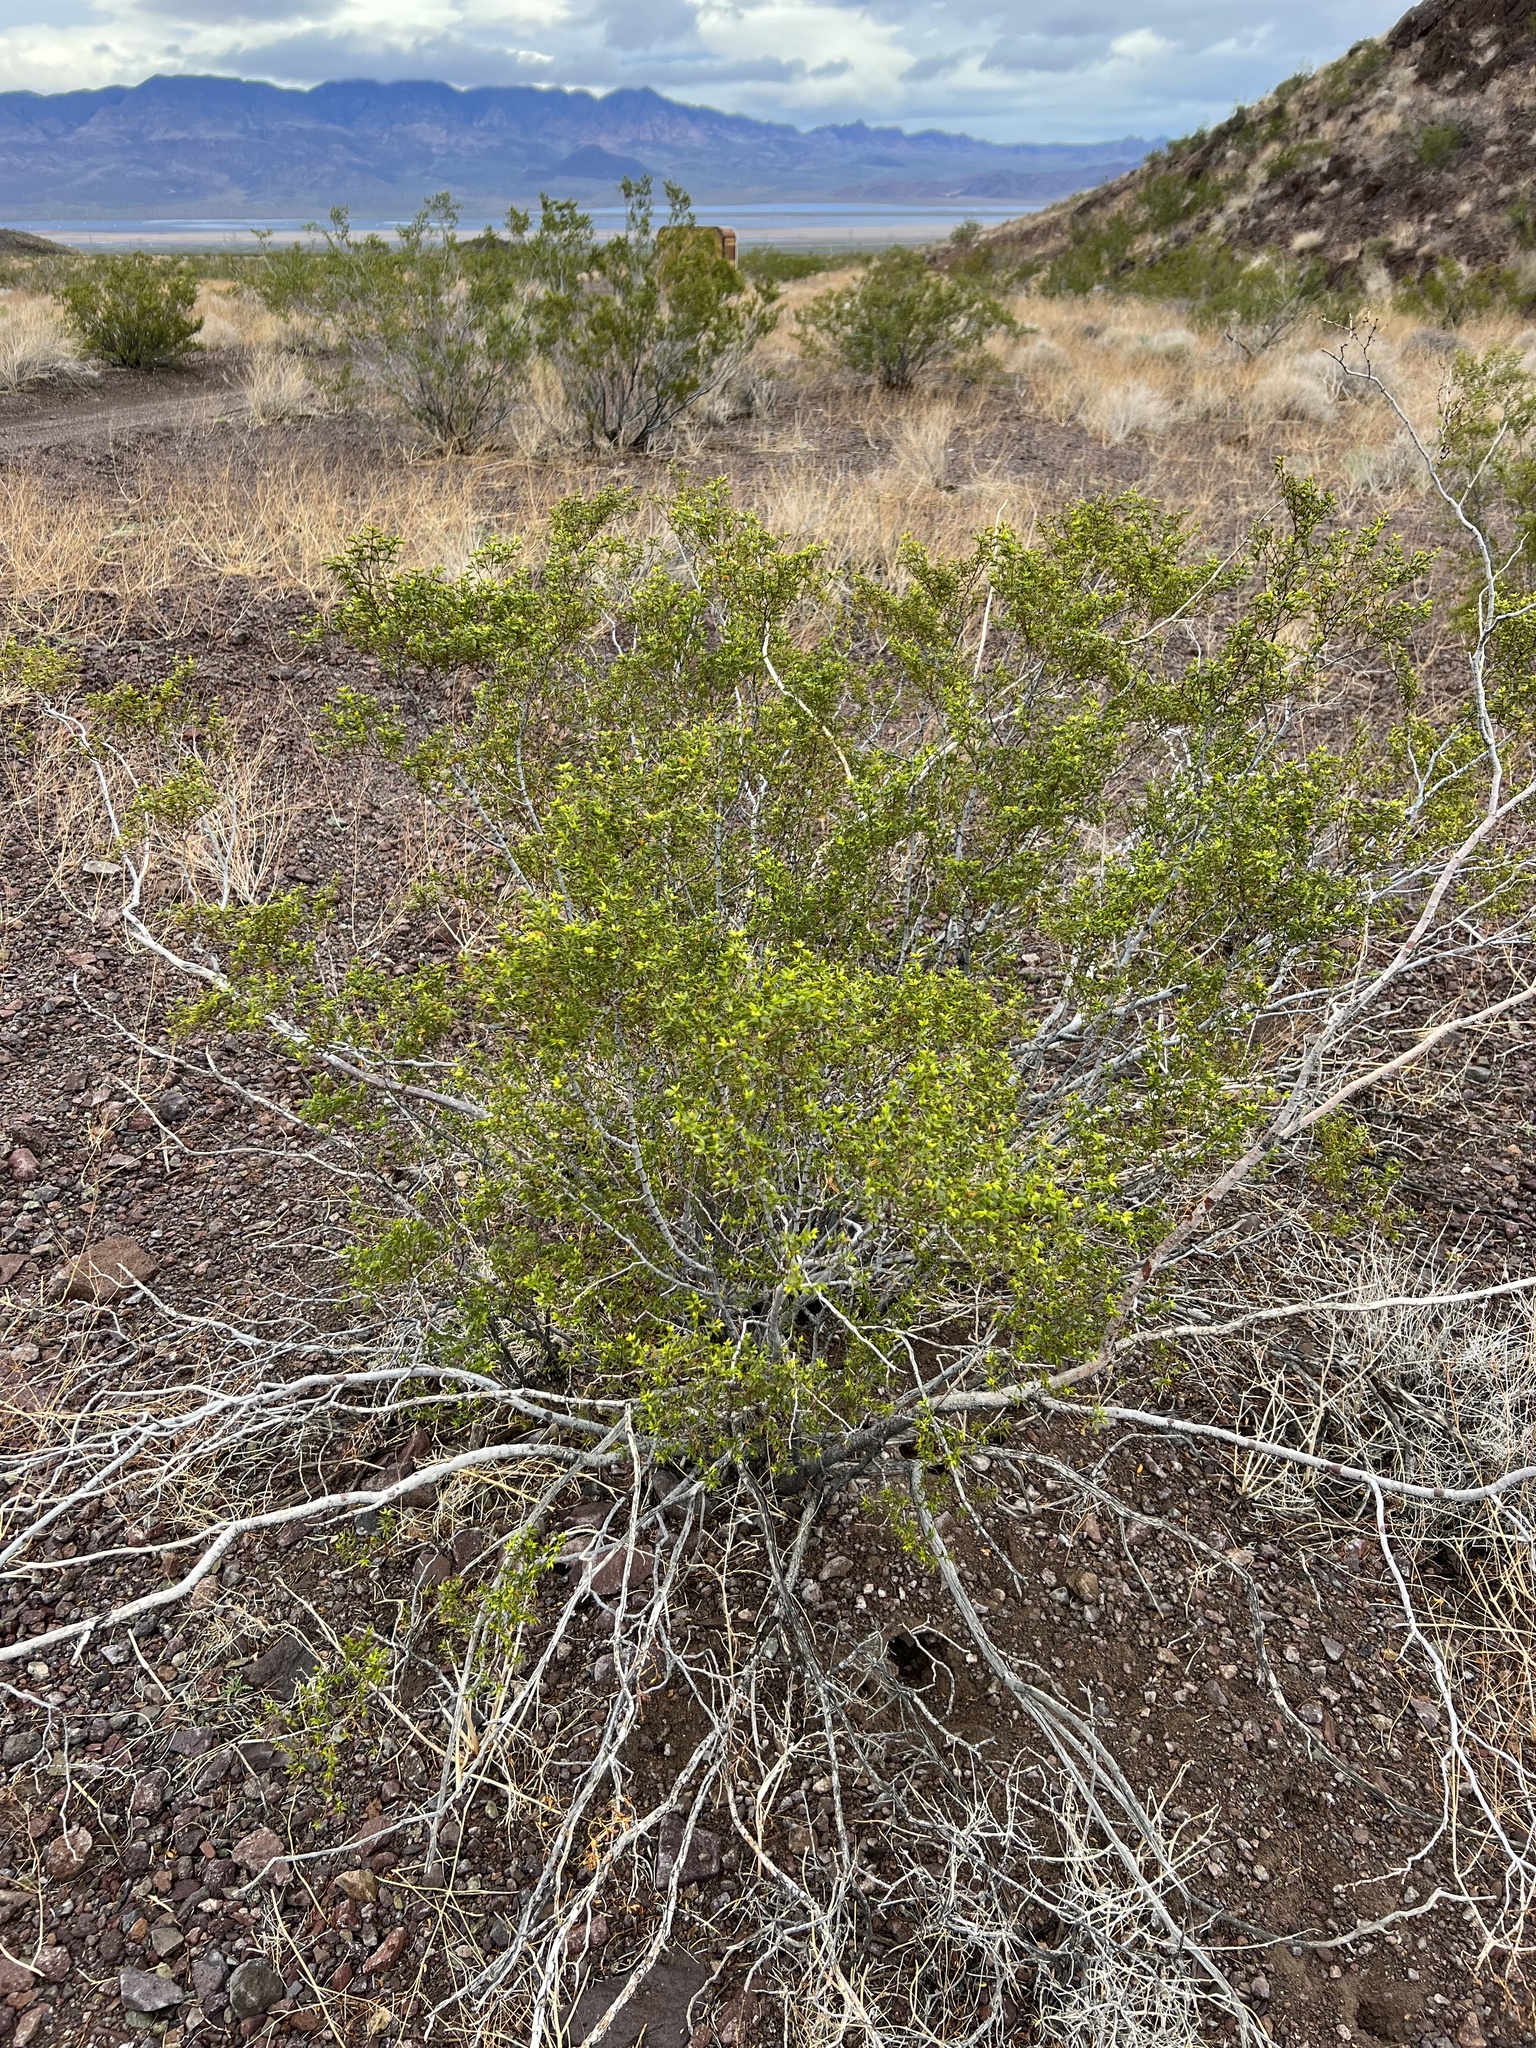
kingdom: Plantae
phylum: Tracheophyta
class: Magnoliopsida
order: Zygophyllales
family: Zygophyllaceae
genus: Larrea
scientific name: Larrea tridentata
